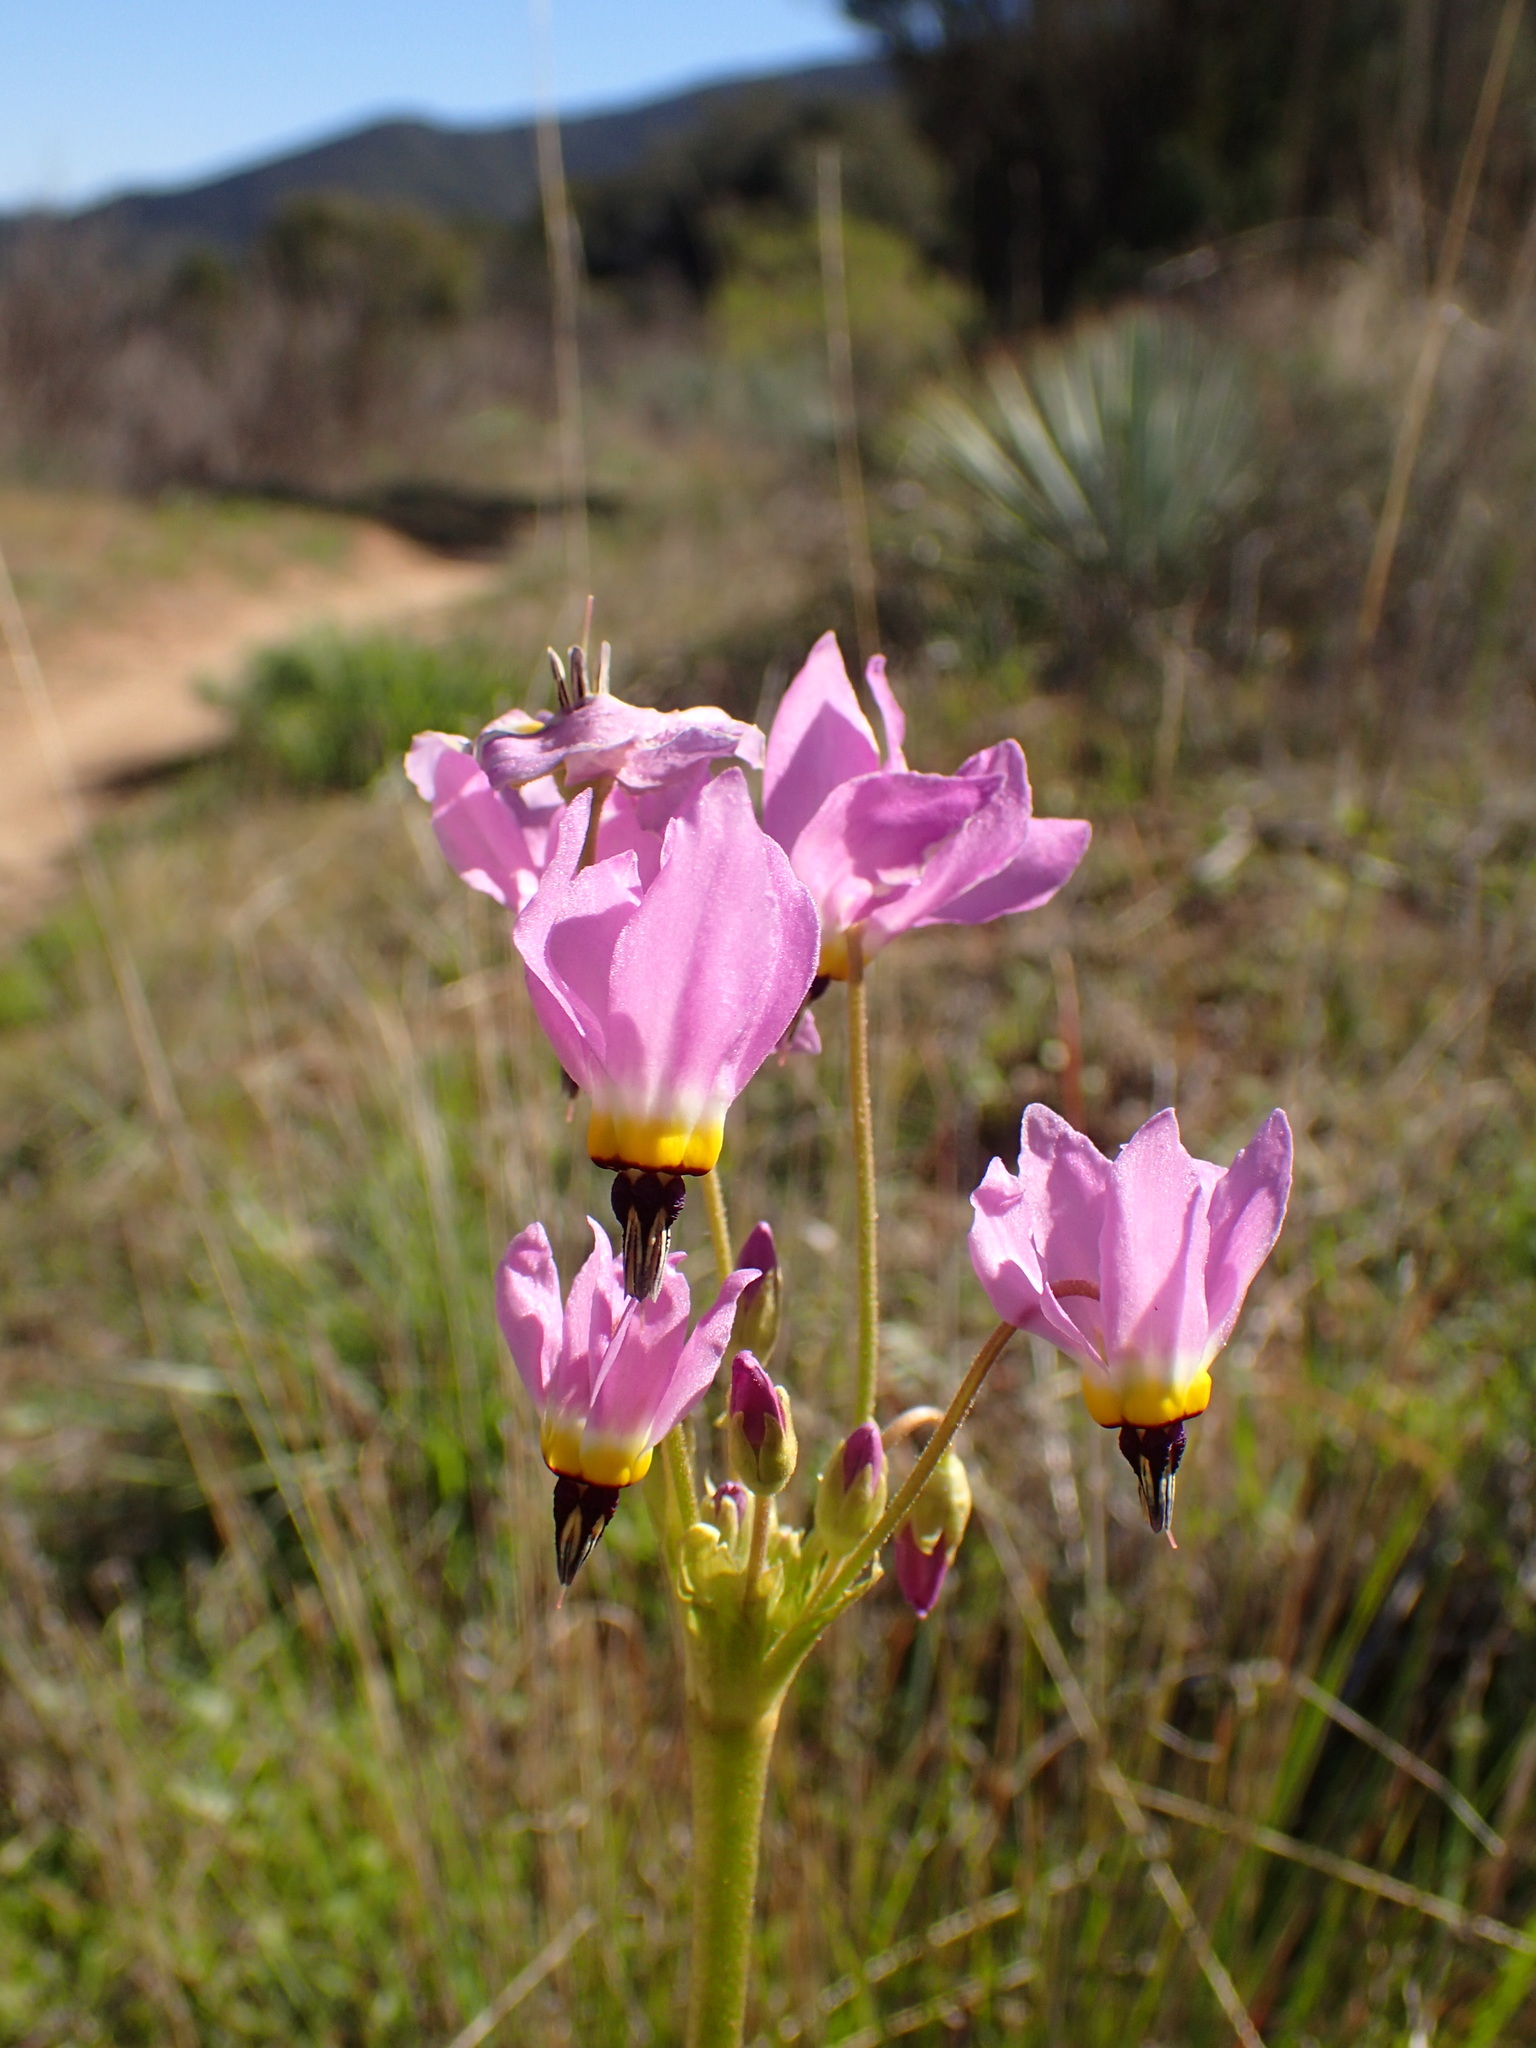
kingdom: Plantae
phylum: Tracheophyta
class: Magnoliopsida
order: Ericales
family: Primulaceae
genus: Dodecatheon
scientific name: Dodecatheon clevelandii
